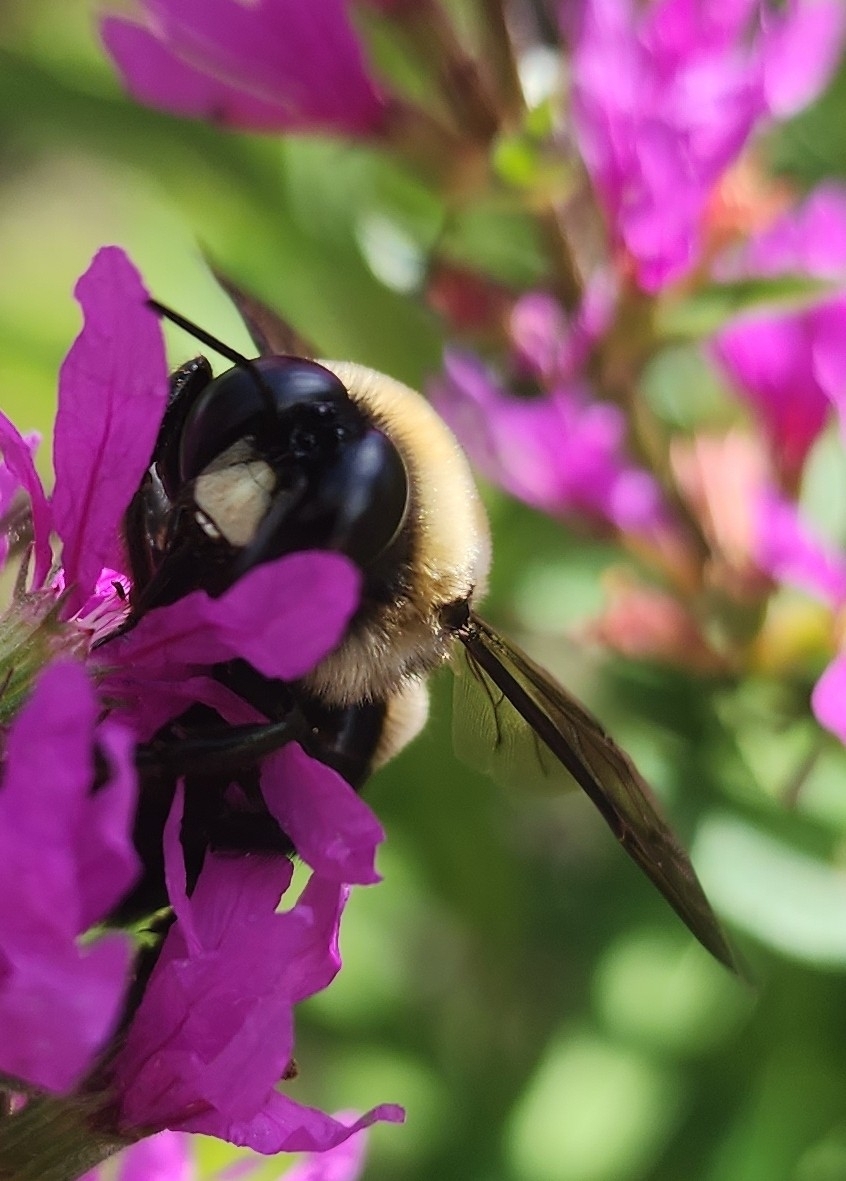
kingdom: Animalia
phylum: Arthropoda
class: Insecta
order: Hymenoptera
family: Apidae
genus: Xylocopa
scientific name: Xylocopa virginica
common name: Carpenter bee
